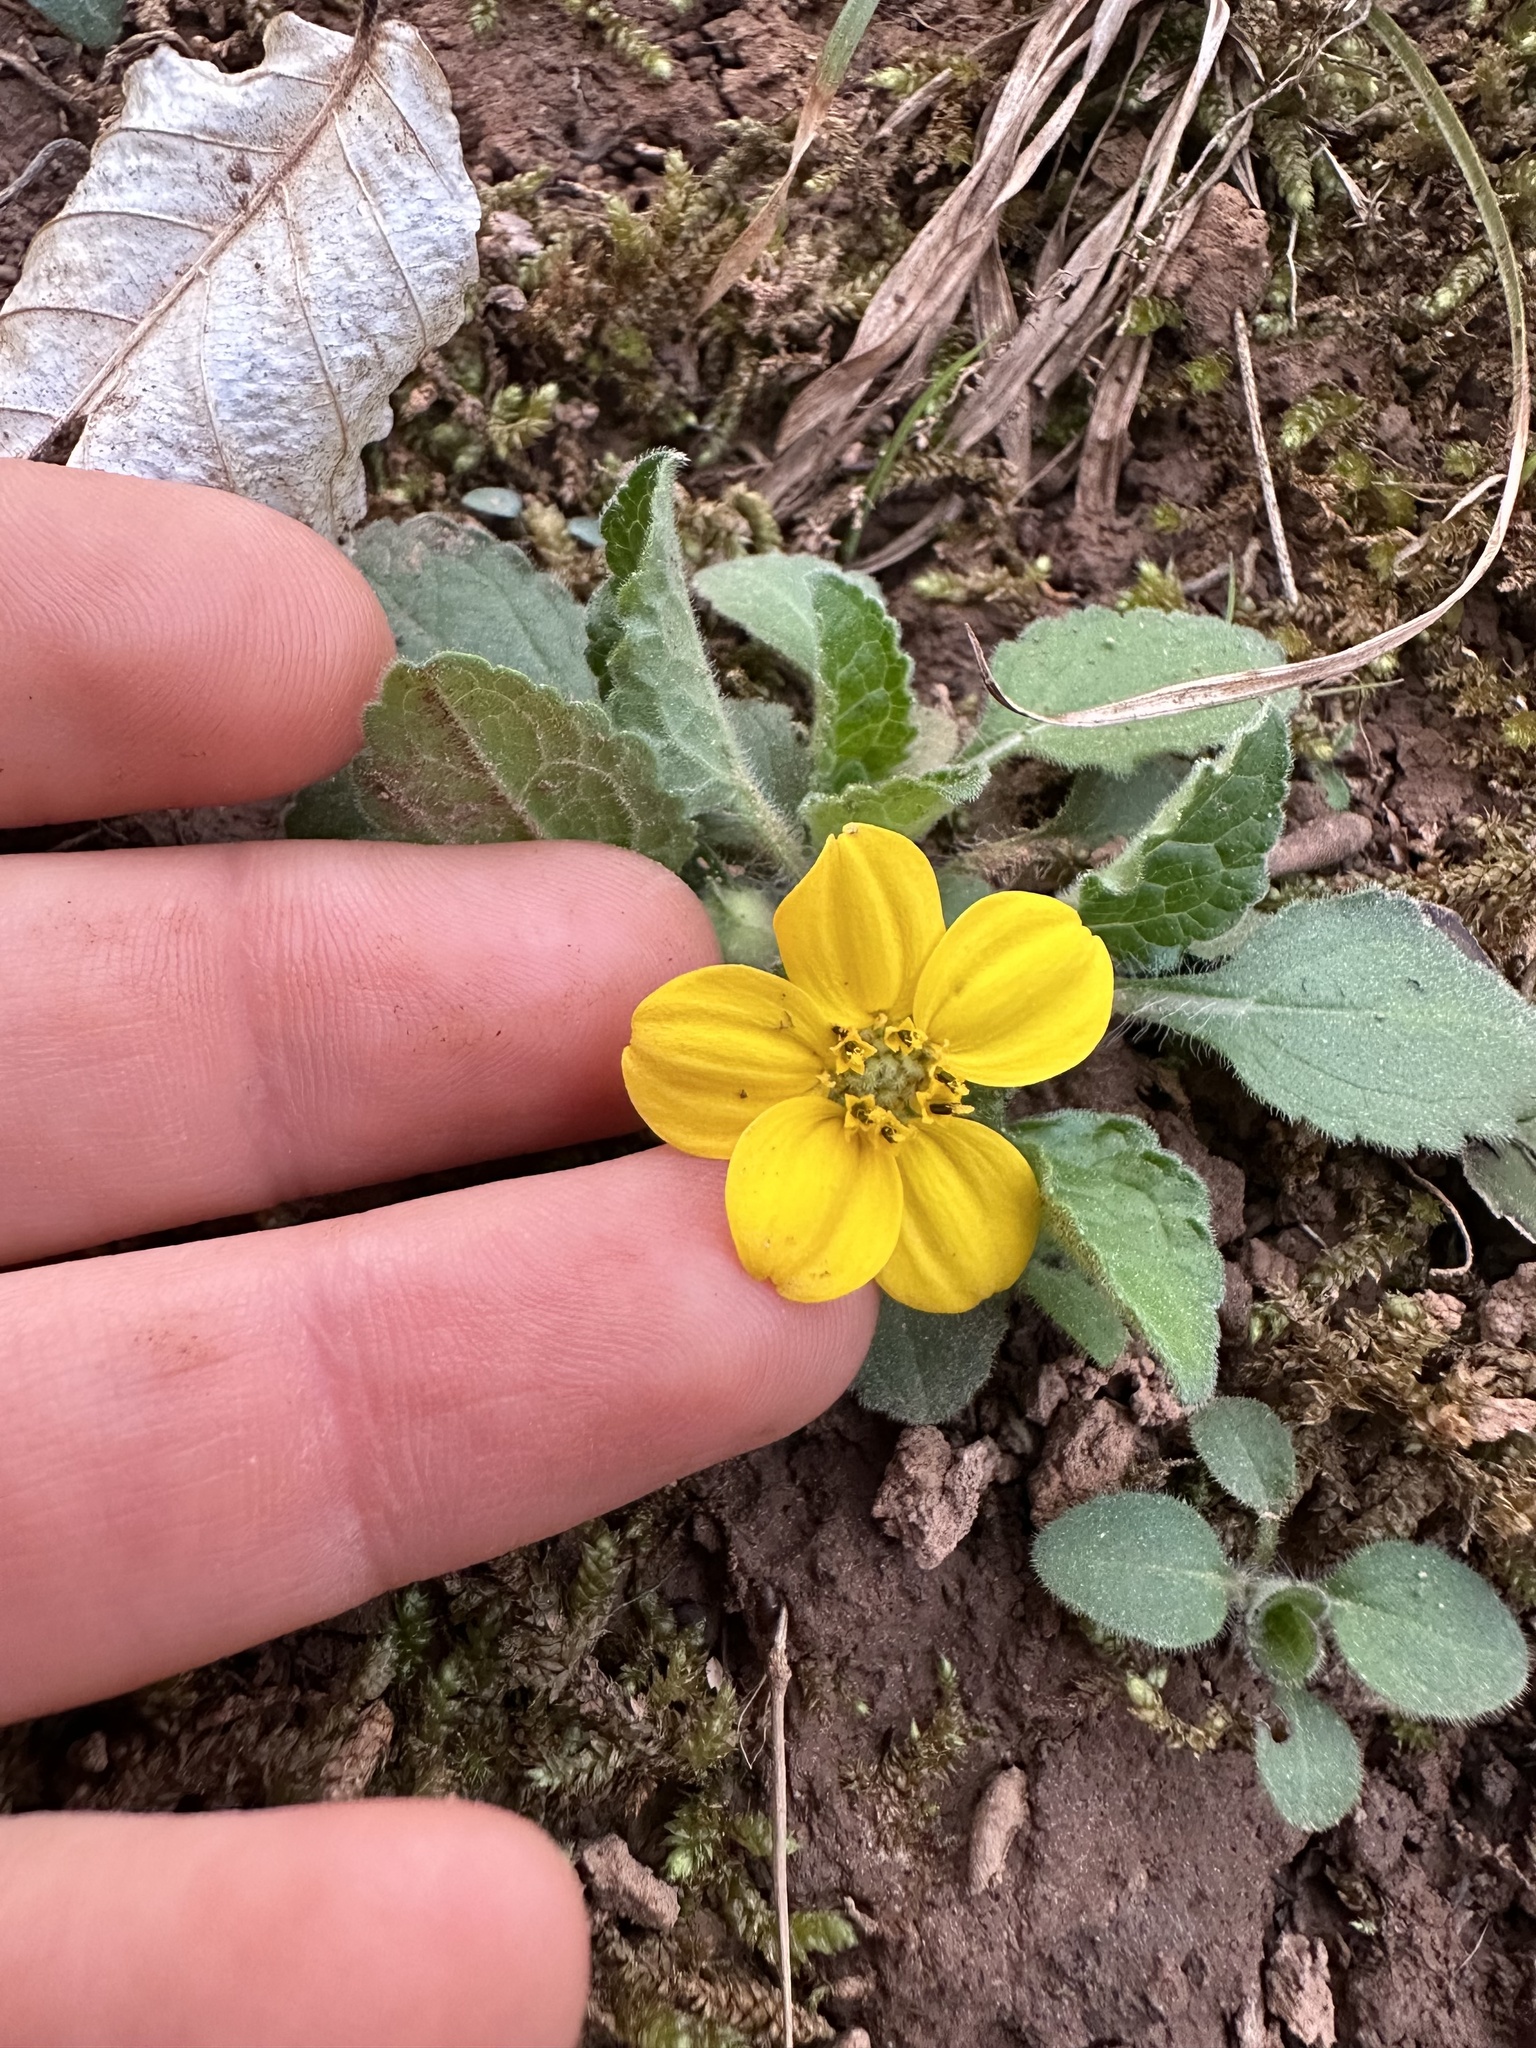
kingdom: Plantae
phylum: Tracheophyta
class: Magnoliopsida
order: Asterales
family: Asteraceae
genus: Chrysogonum
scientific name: Chrysogonum virginianum
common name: Golden-knee
